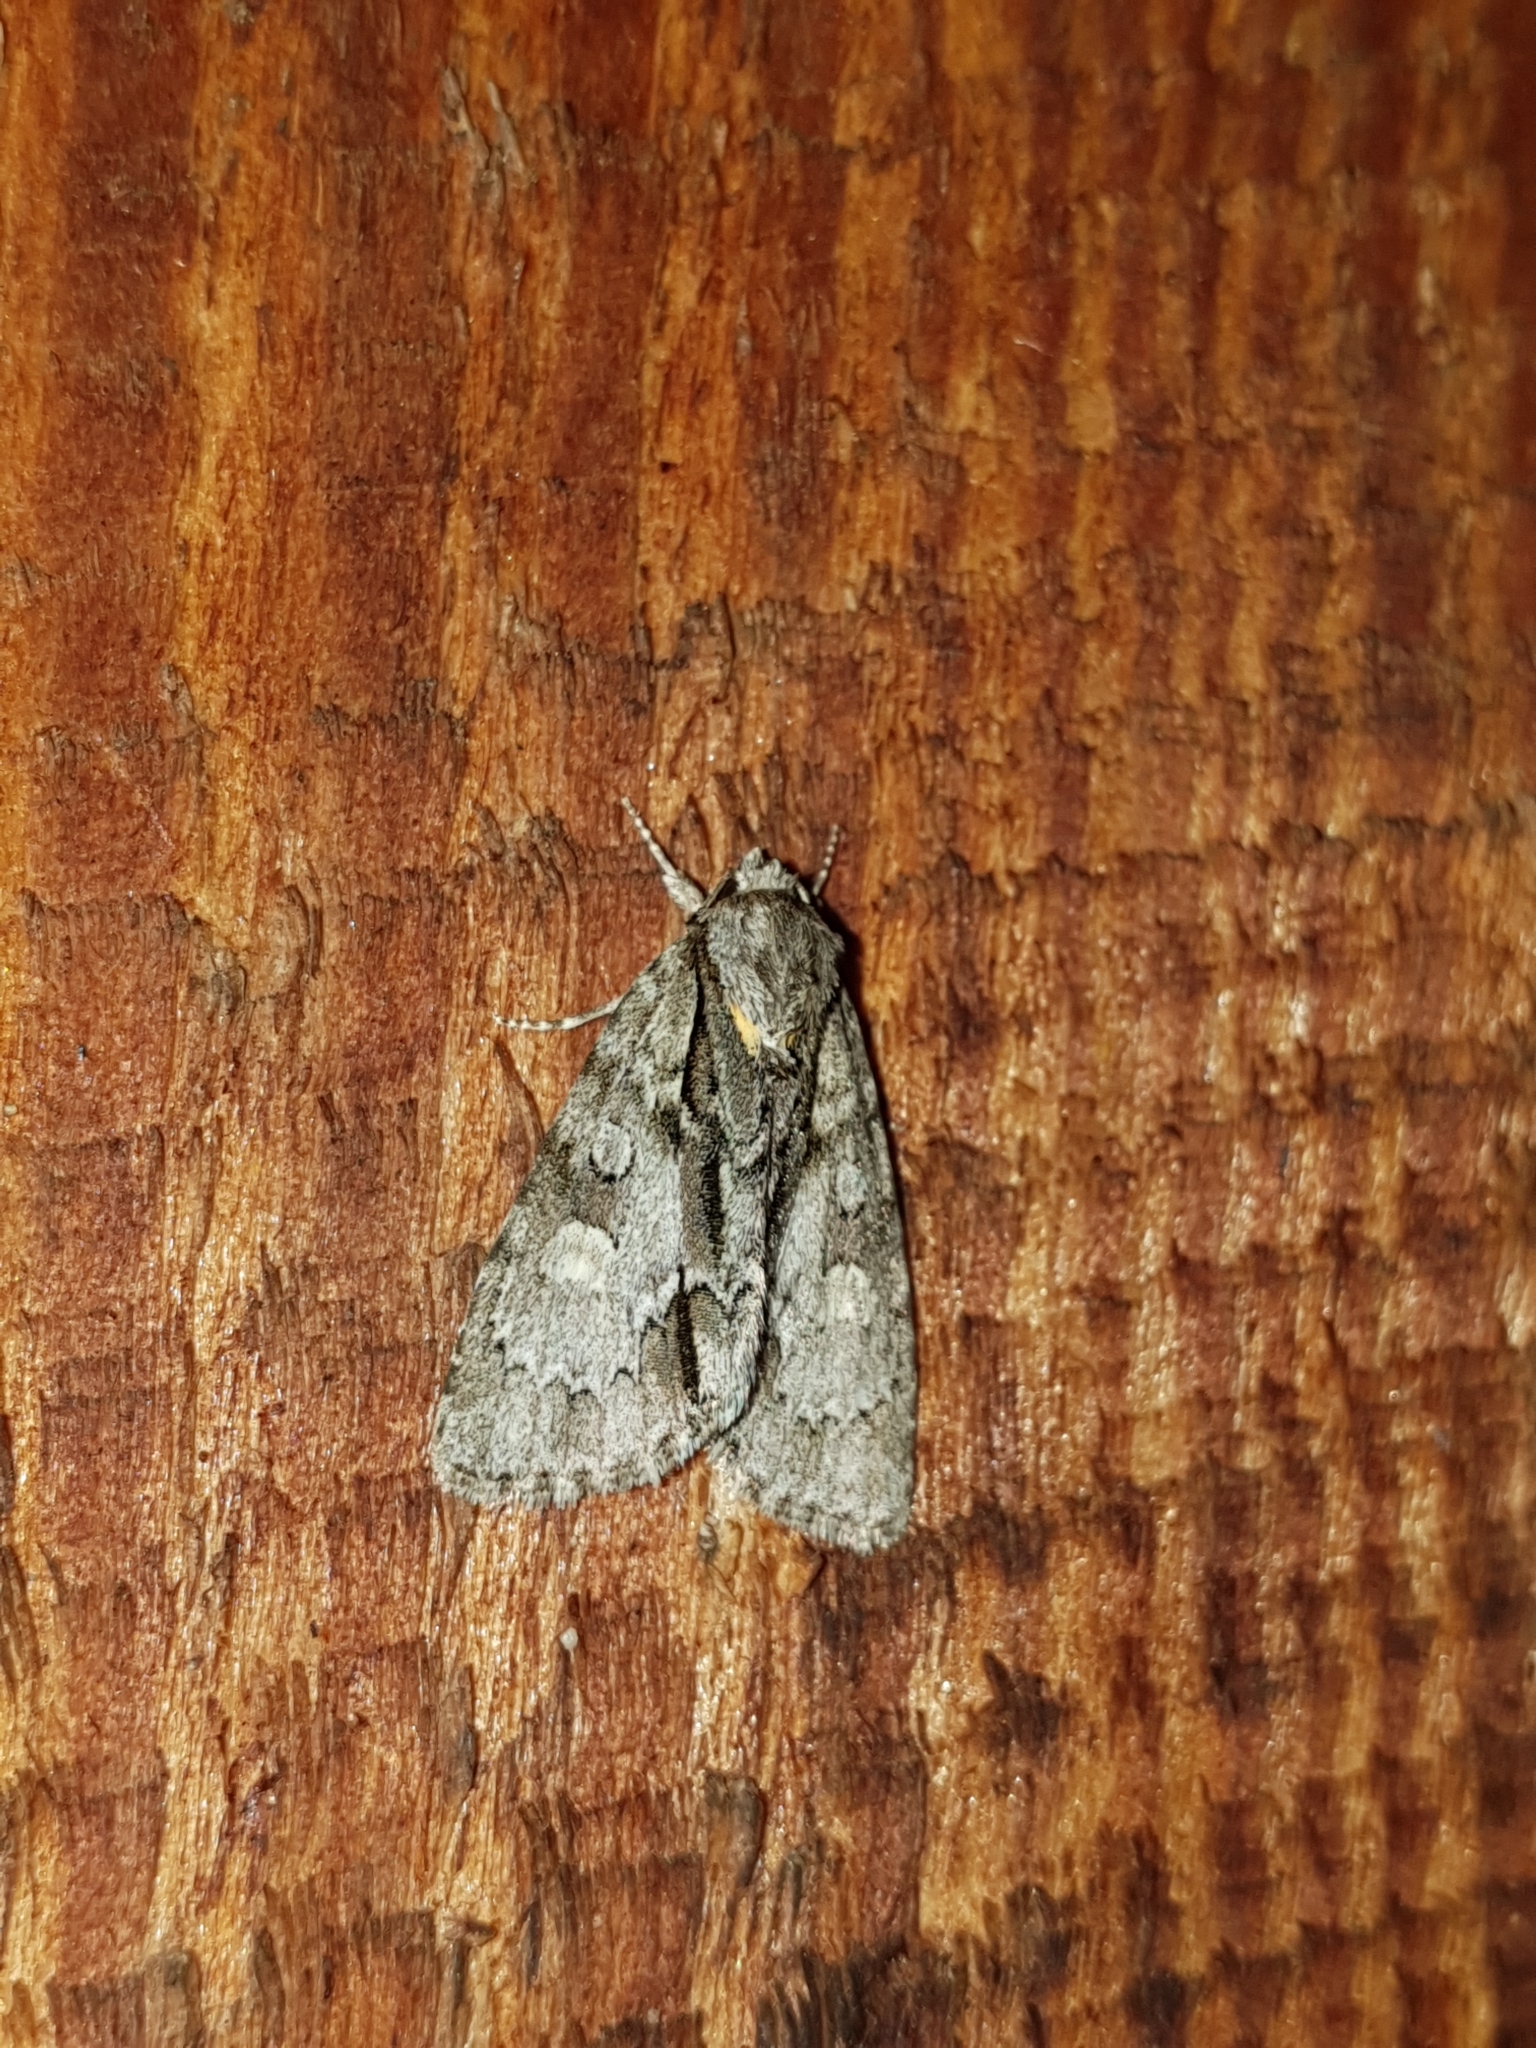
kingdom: Animalia
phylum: Arthropoda
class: Insecta
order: Lepidoptera
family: Noctuidae
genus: Acronicta
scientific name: Acronicta strigosa
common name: Marsh dagger
